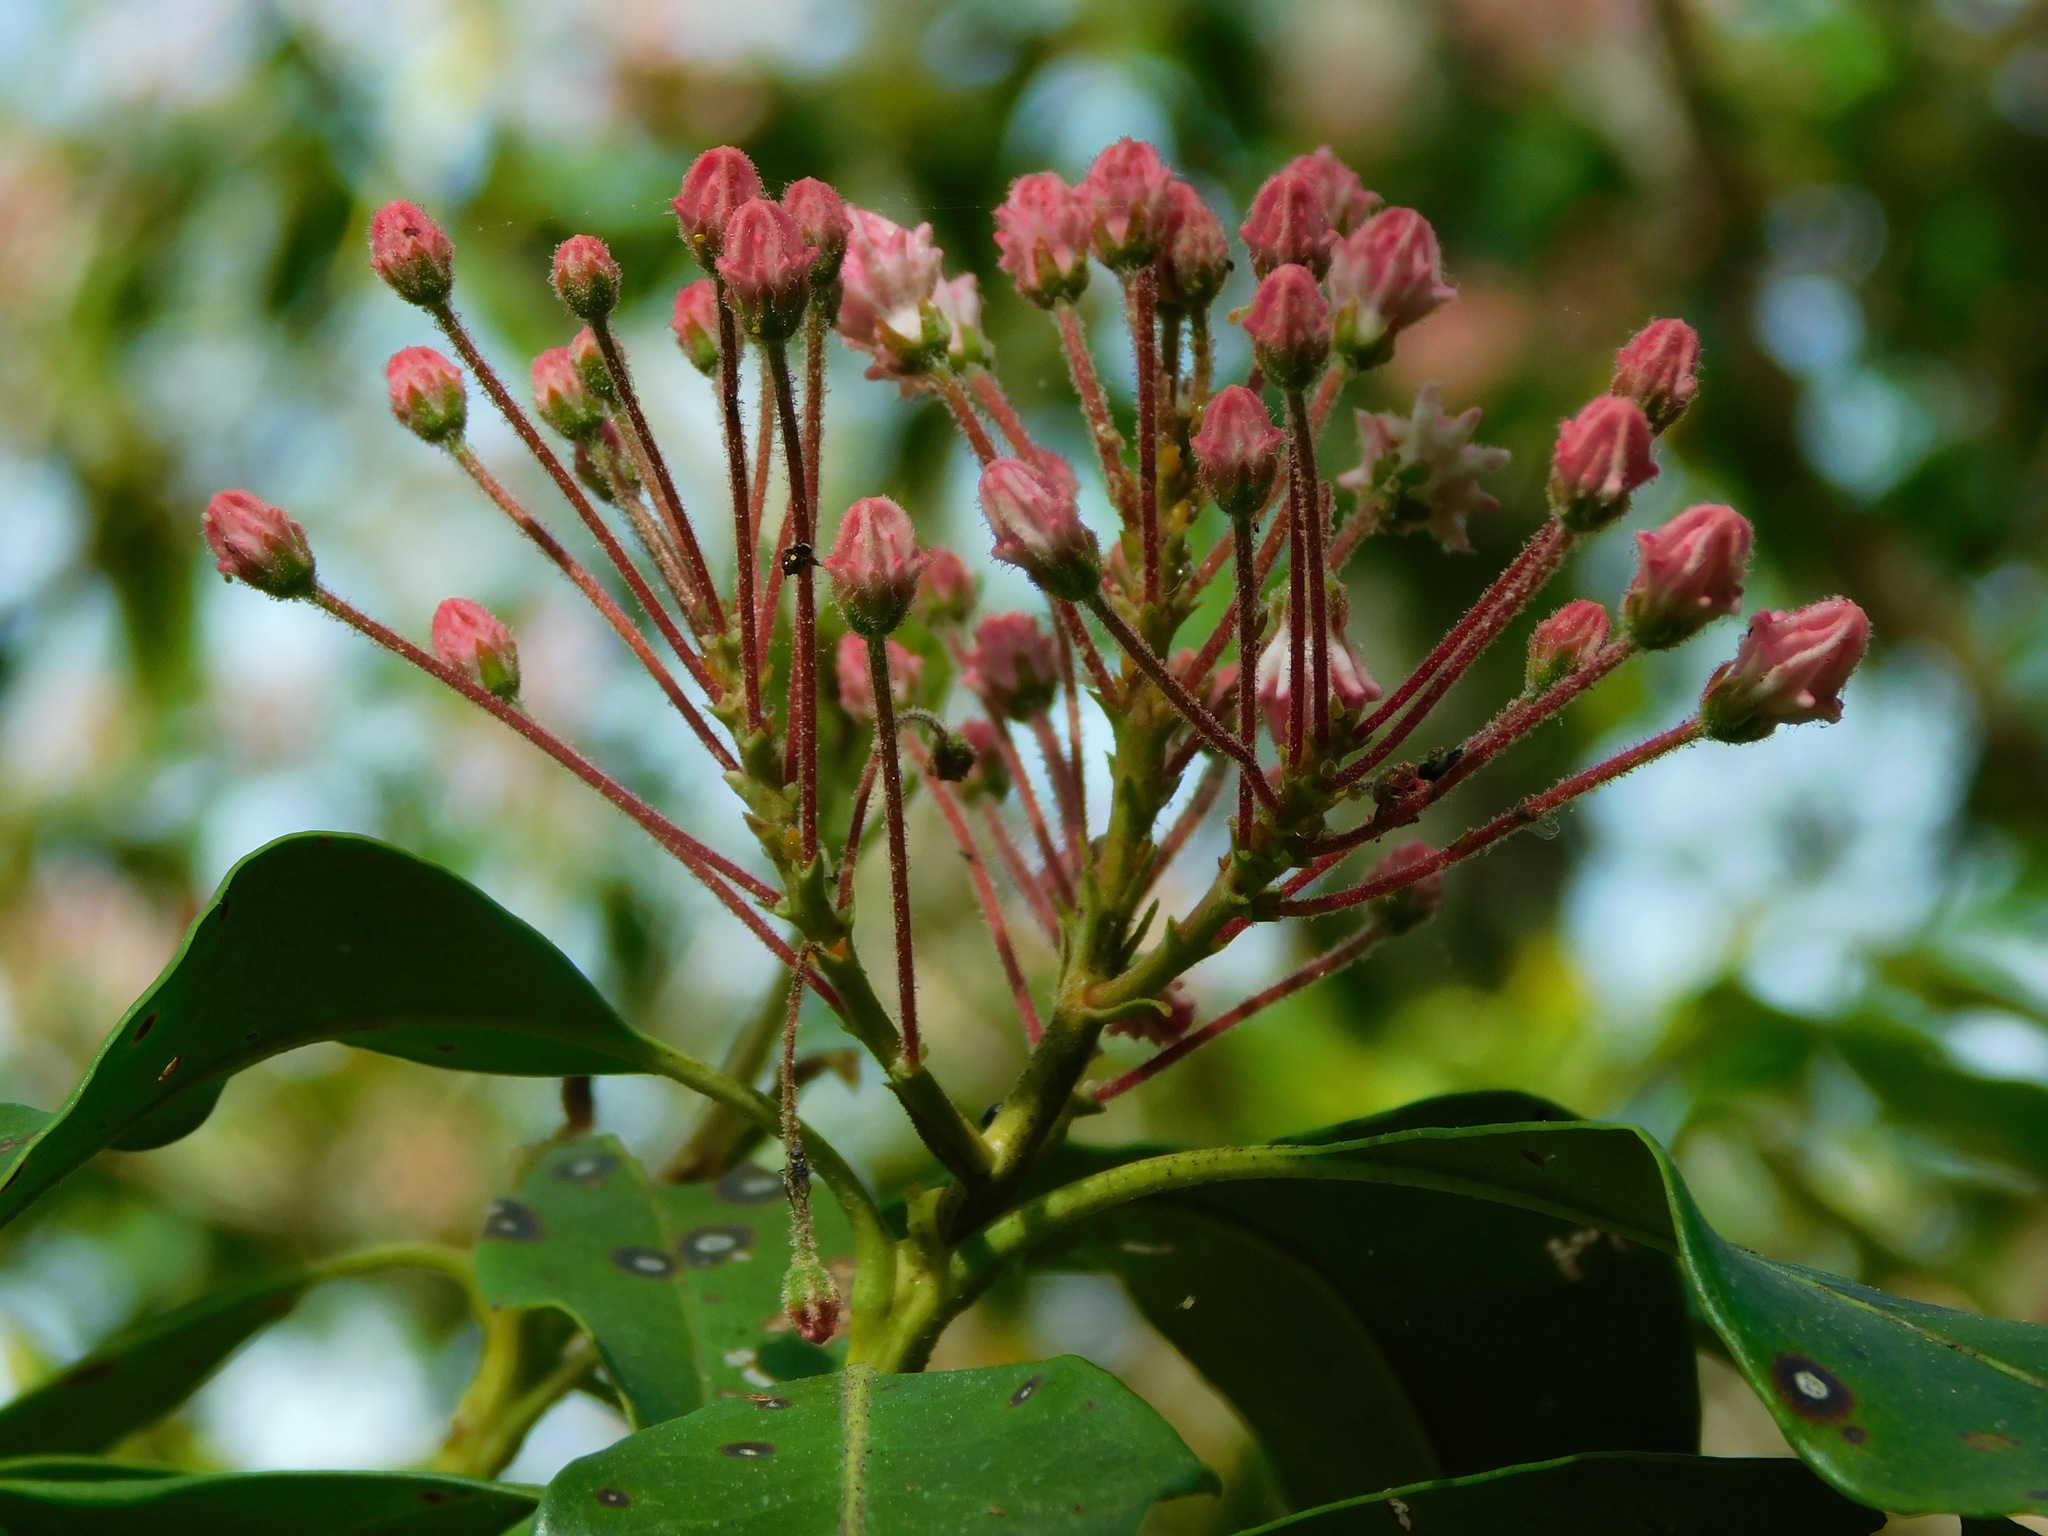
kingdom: Plantae
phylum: Tracheophyta
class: Magnoliopsida
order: Ericales
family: Ericaceae
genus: Kalmia
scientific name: Kalmia latifolia
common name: Mountain-laurel
